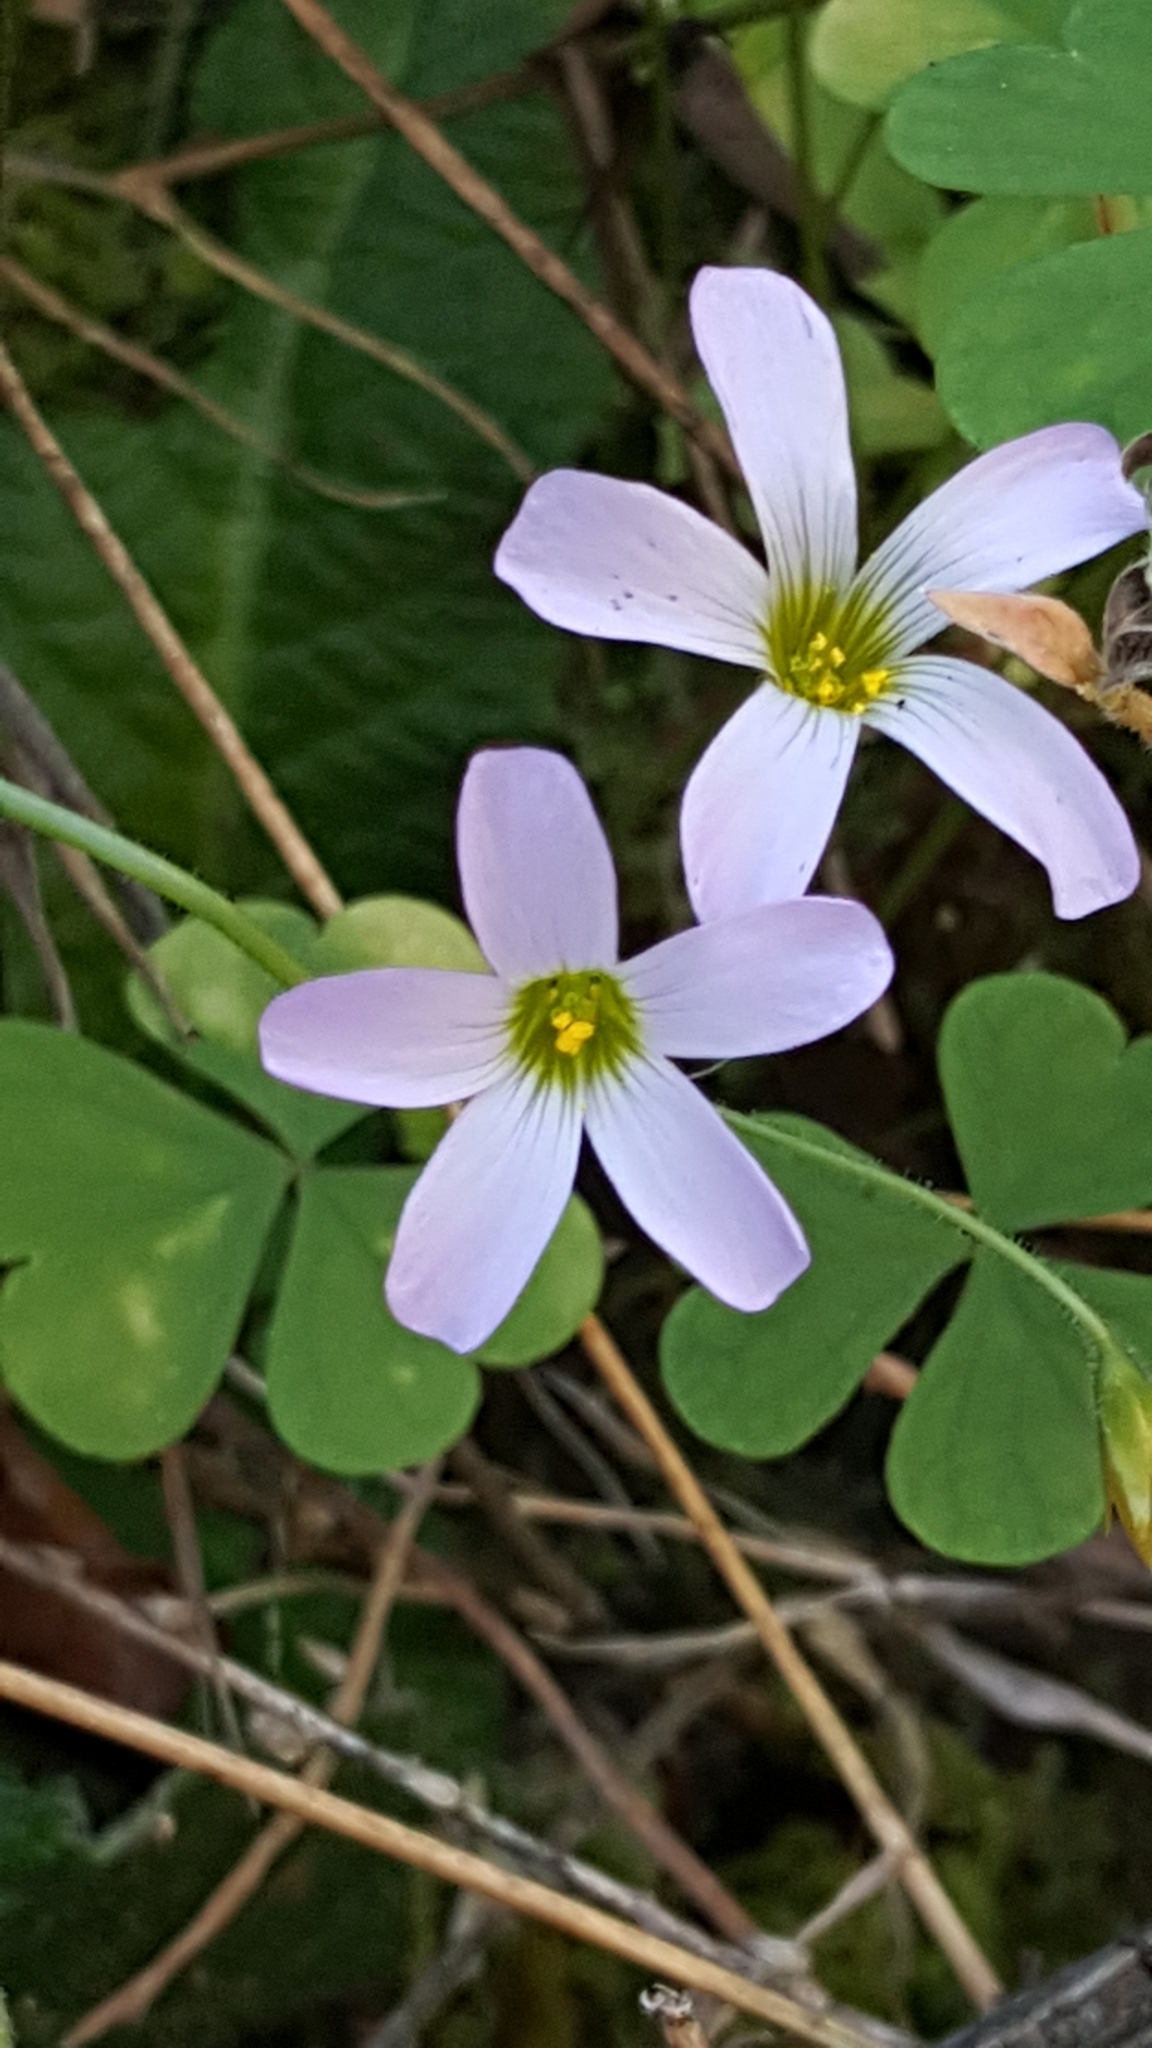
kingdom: Plantae
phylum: Tracheophyta
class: Magnoliopsida
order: Oxalidales
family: Oxalidaceae
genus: Oxalis
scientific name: Oxalis
